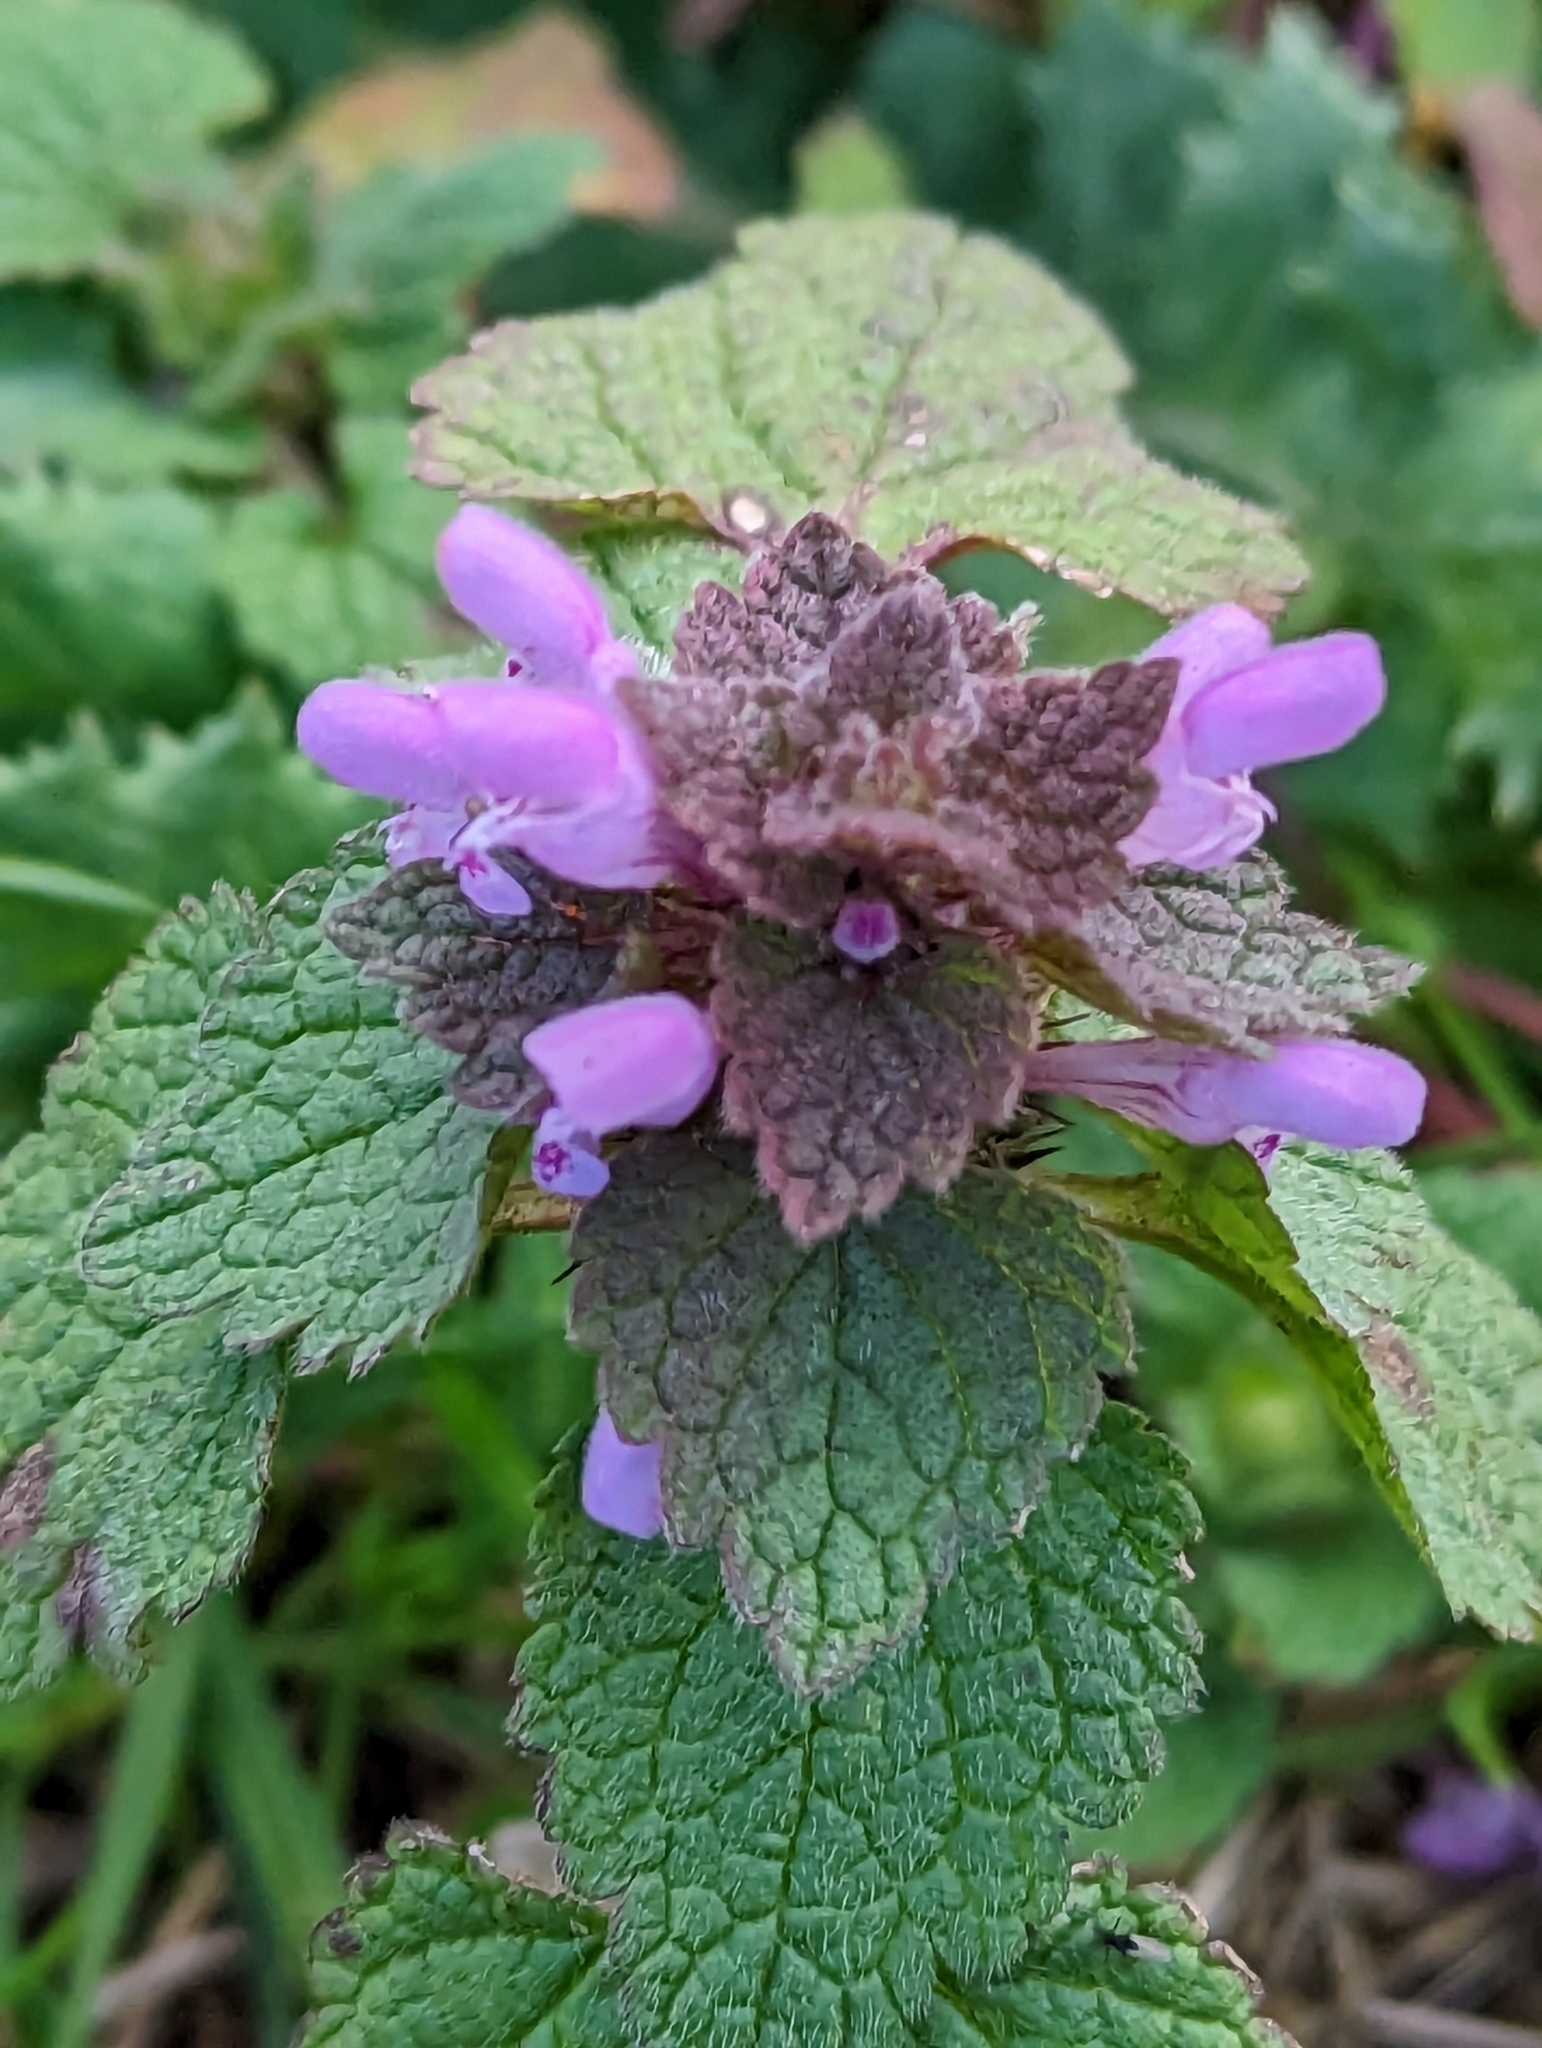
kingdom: Plantae
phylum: Tracheophyta
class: Magnoliopsida
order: Lamiales
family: Lamiaceae
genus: Lamium
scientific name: Lamium purpureum
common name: Red dead-nettle
